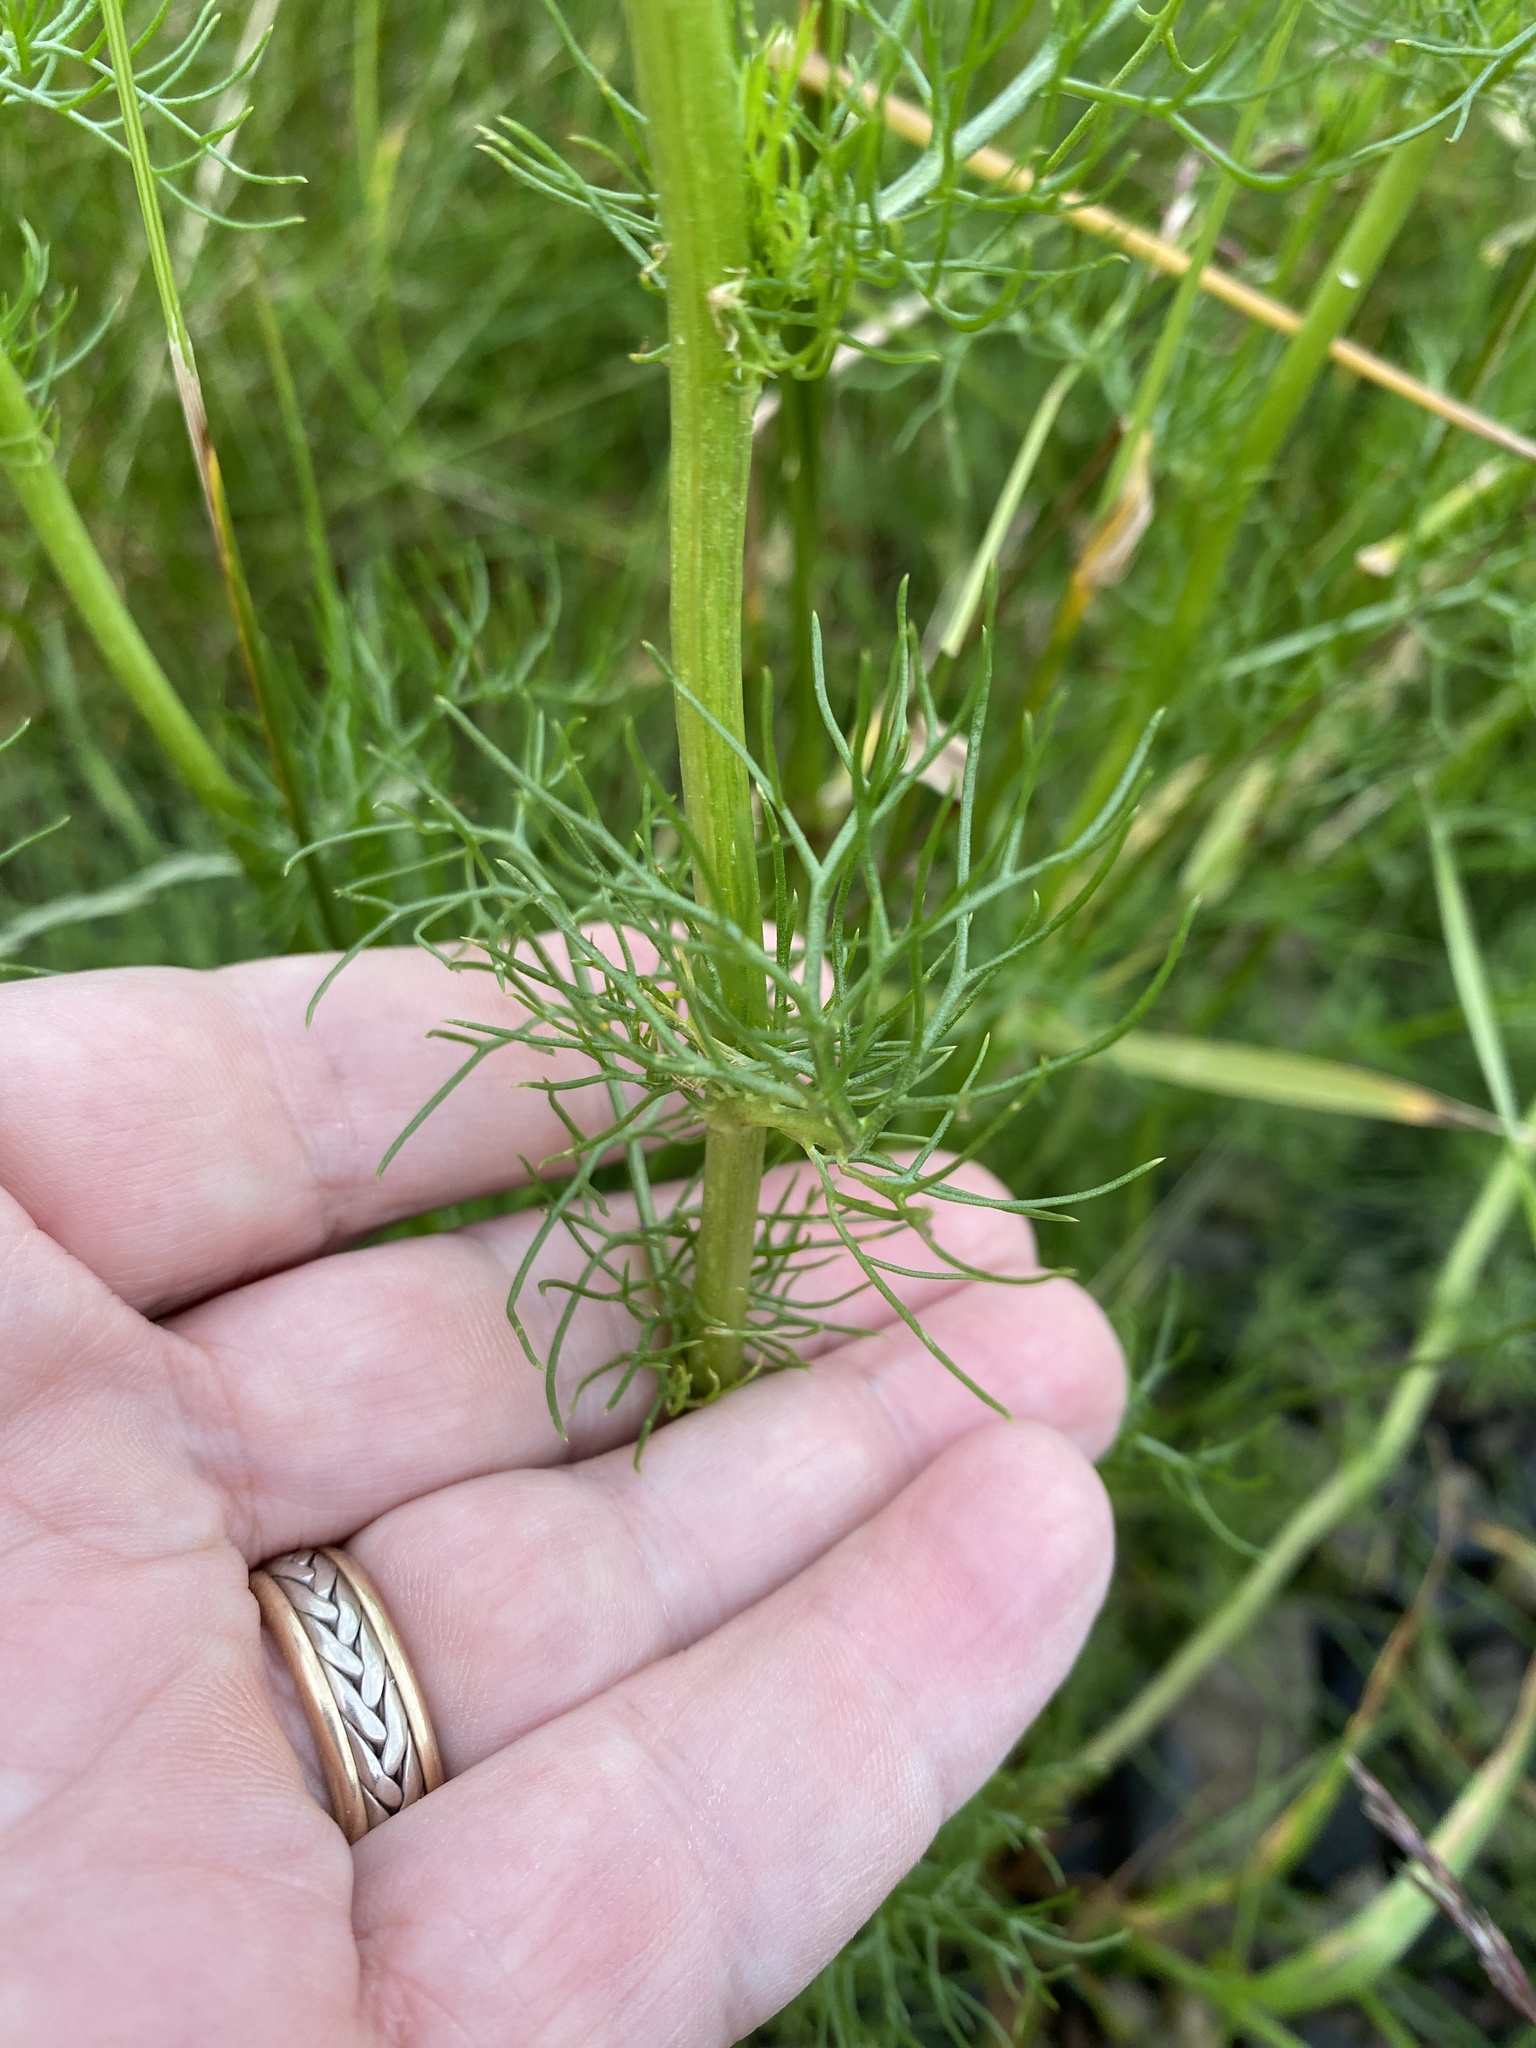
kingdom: Plantae
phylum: Tracheophyta
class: Magnoliopsida
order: Asterales
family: Asteraceae
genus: Tripleurospermum
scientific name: Tripleurospermum inodorum
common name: Scentless mayweed
